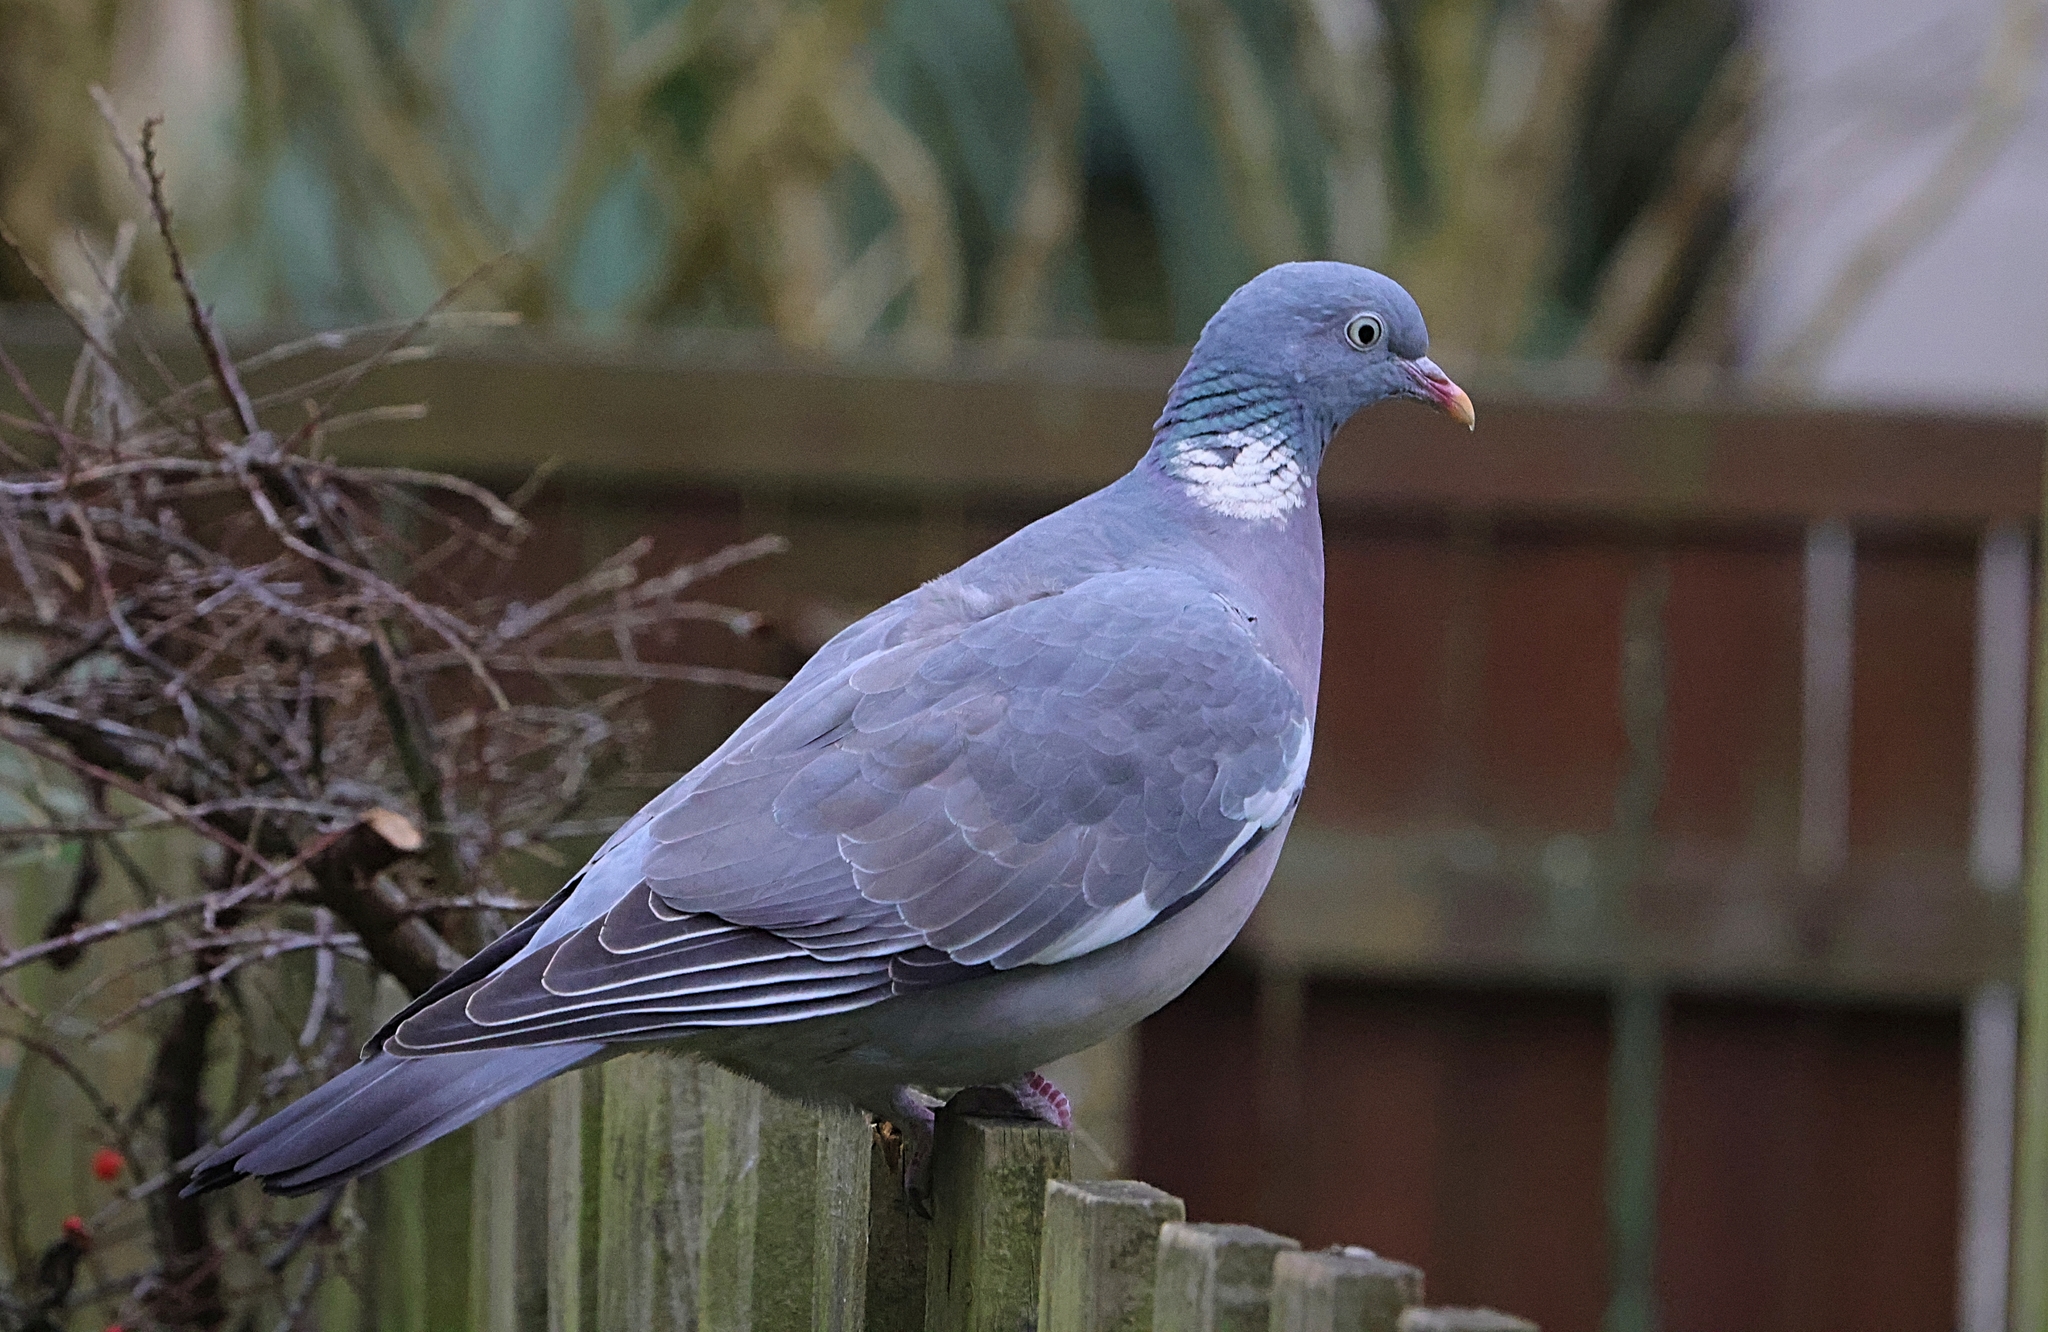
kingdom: Animalia
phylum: Chordata
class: Aves
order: Columbiformes
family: Columbidae
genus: Columba
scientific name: Columba palumbus
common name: Common wood pigeon
